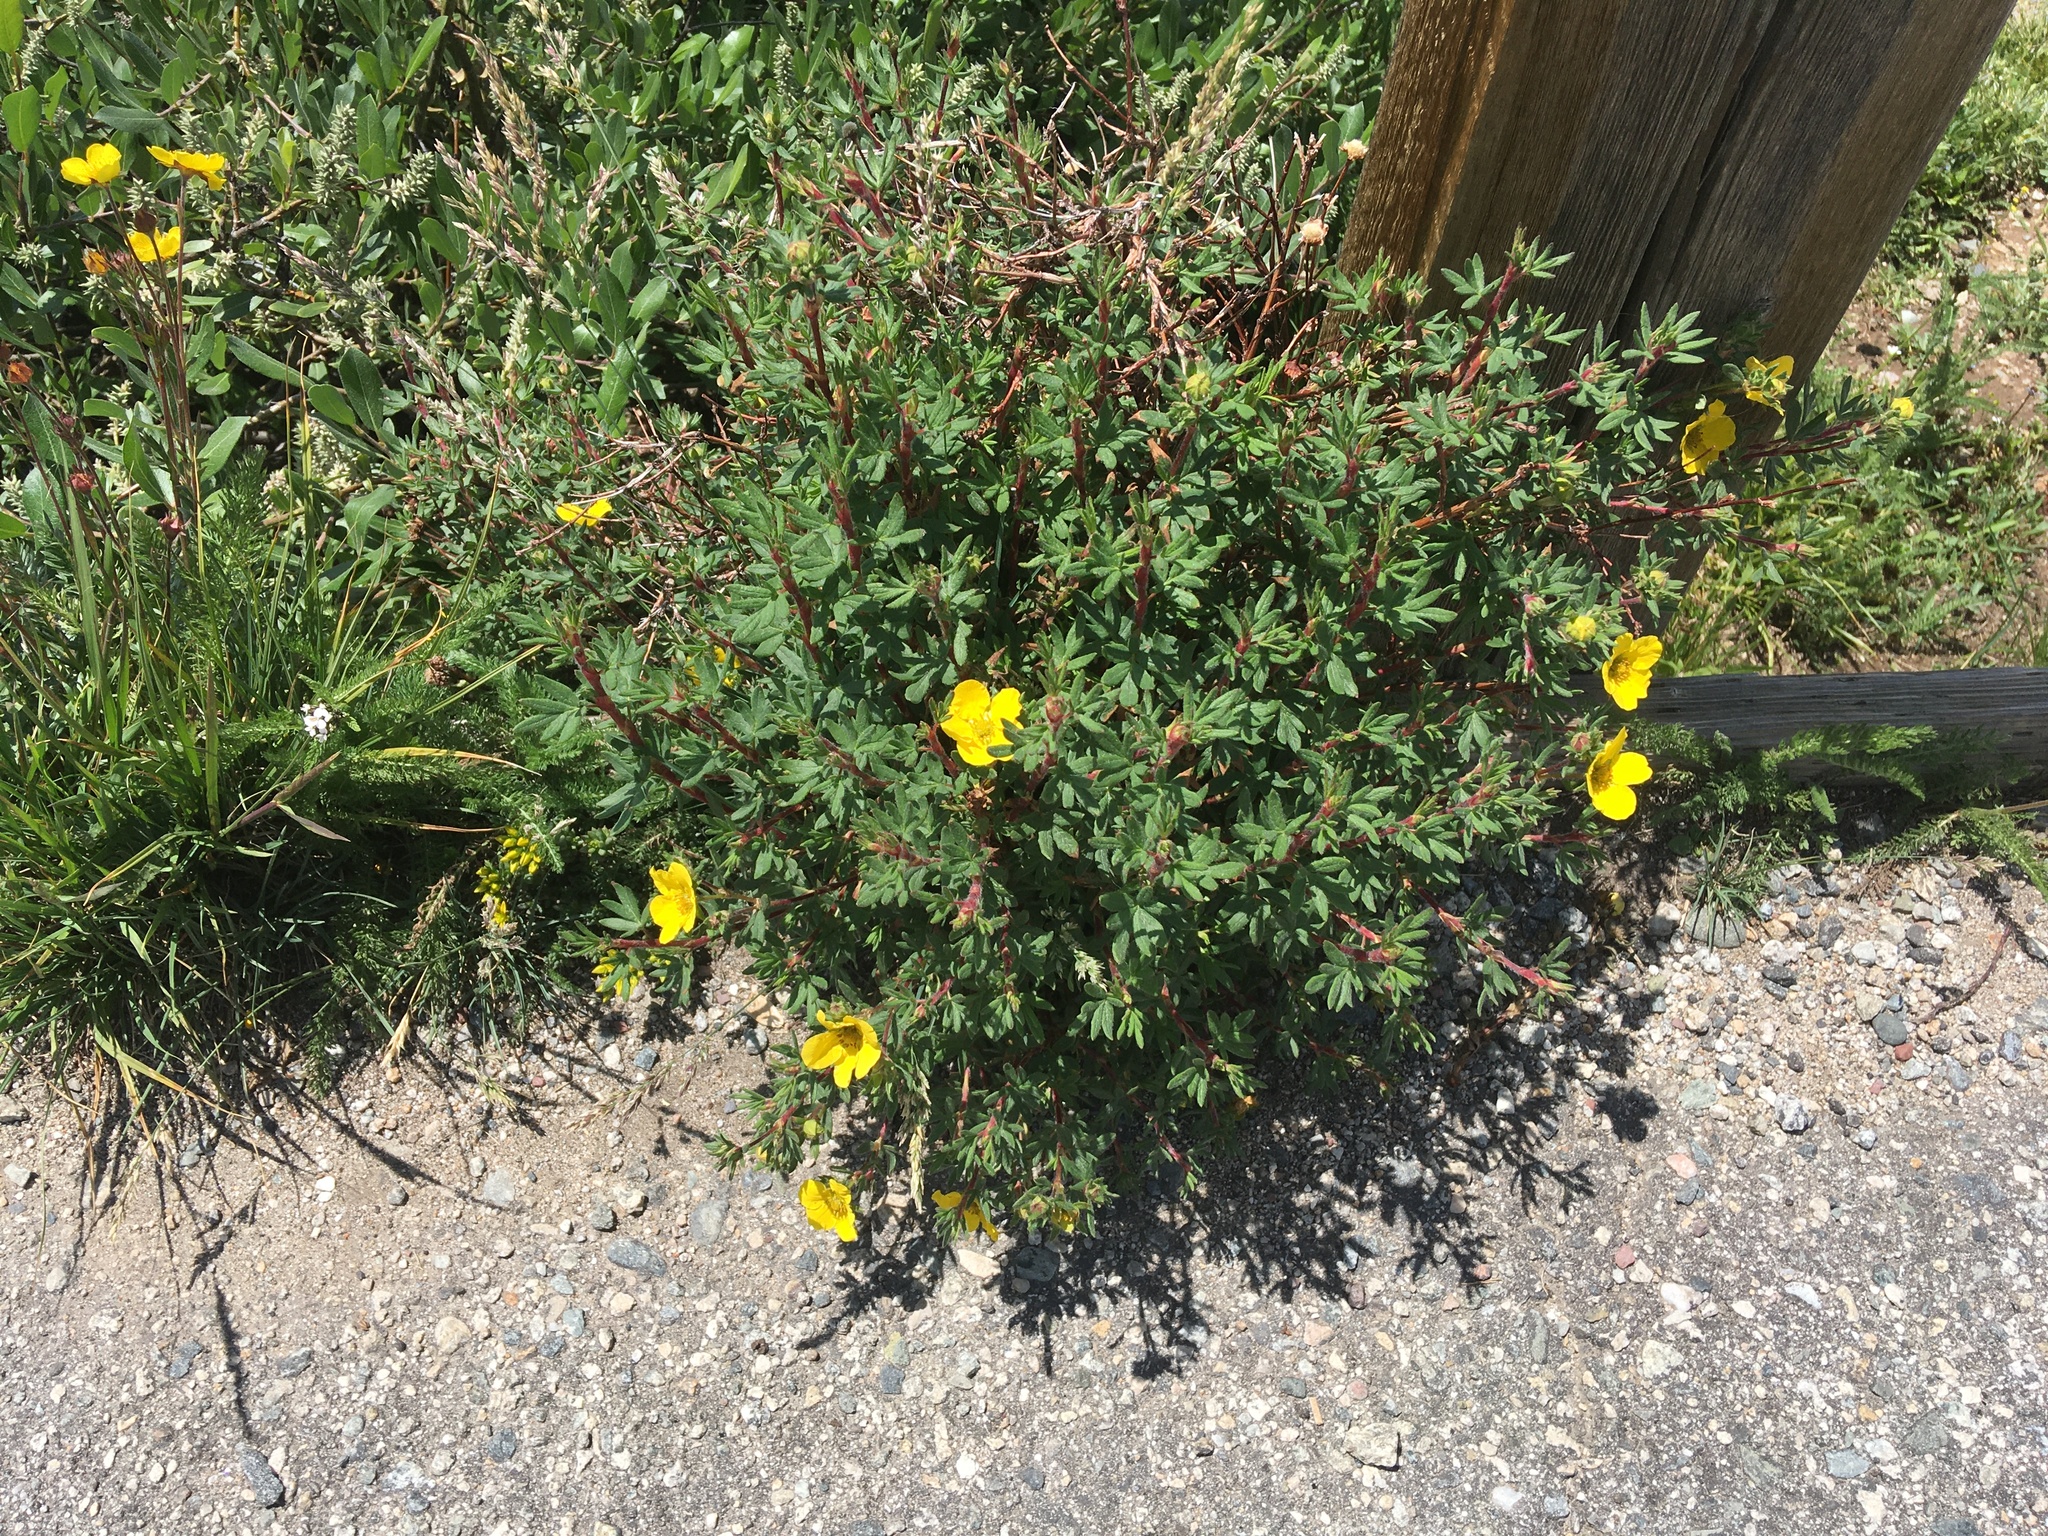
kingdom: Plantae
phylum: Tracheophyta
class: Magnoliopsida
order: Rosales
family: Rosaceae
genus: Dasiphora
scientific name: Dasiphora fruticosa
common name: Shrubby cinquefoil
